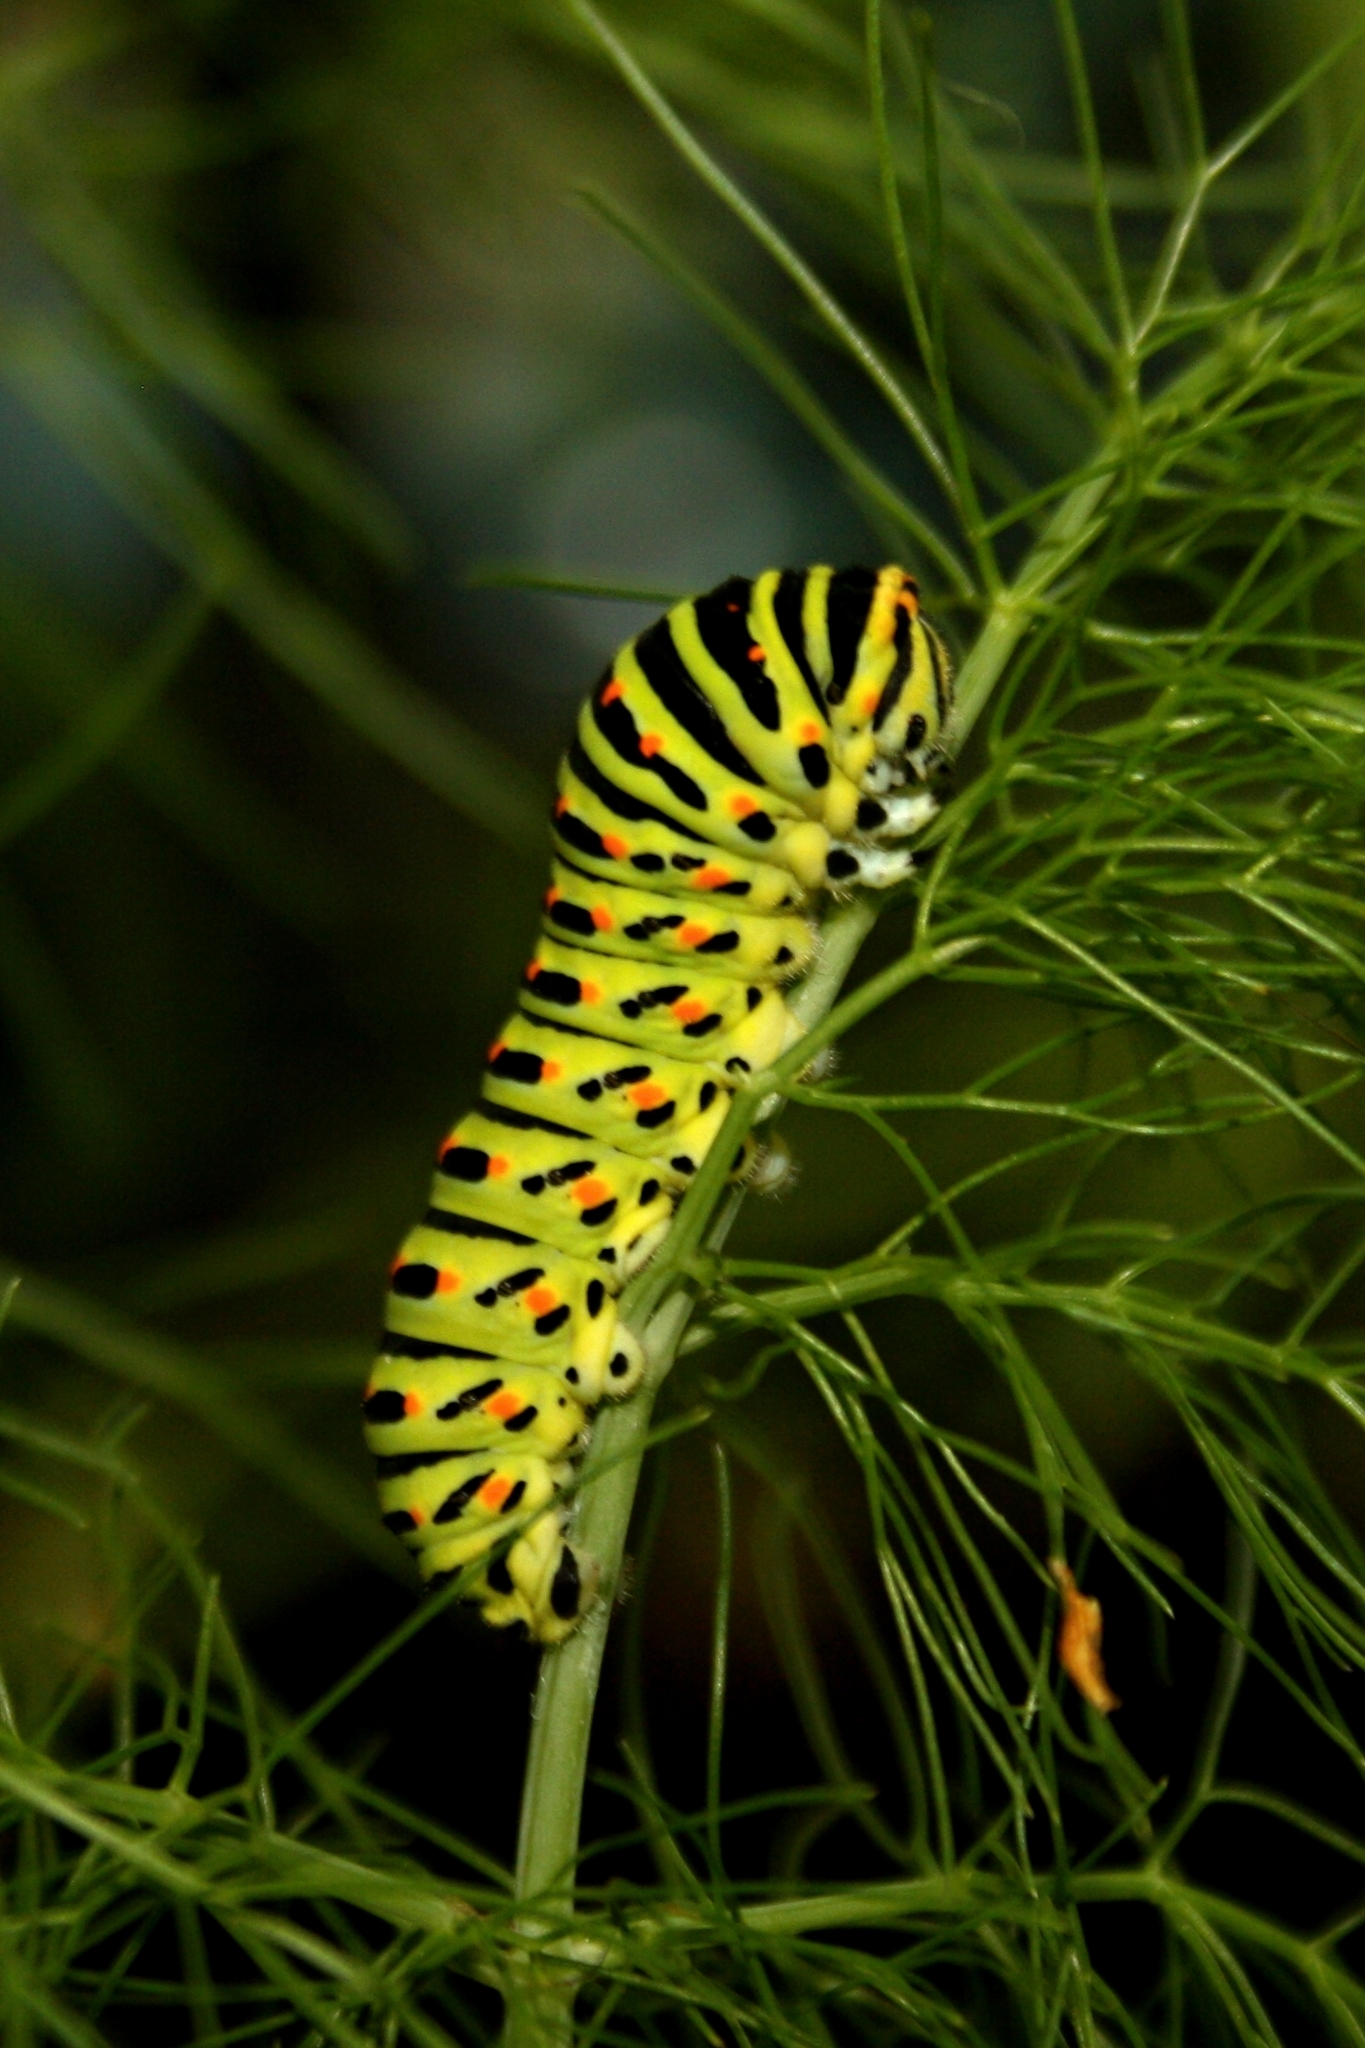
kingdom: Animalia
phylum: Arthropoda
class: Insecta
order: Lepidoptera
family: Papilionidae
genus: Papilio
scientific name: Papilio machaon
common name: Swallowtail
